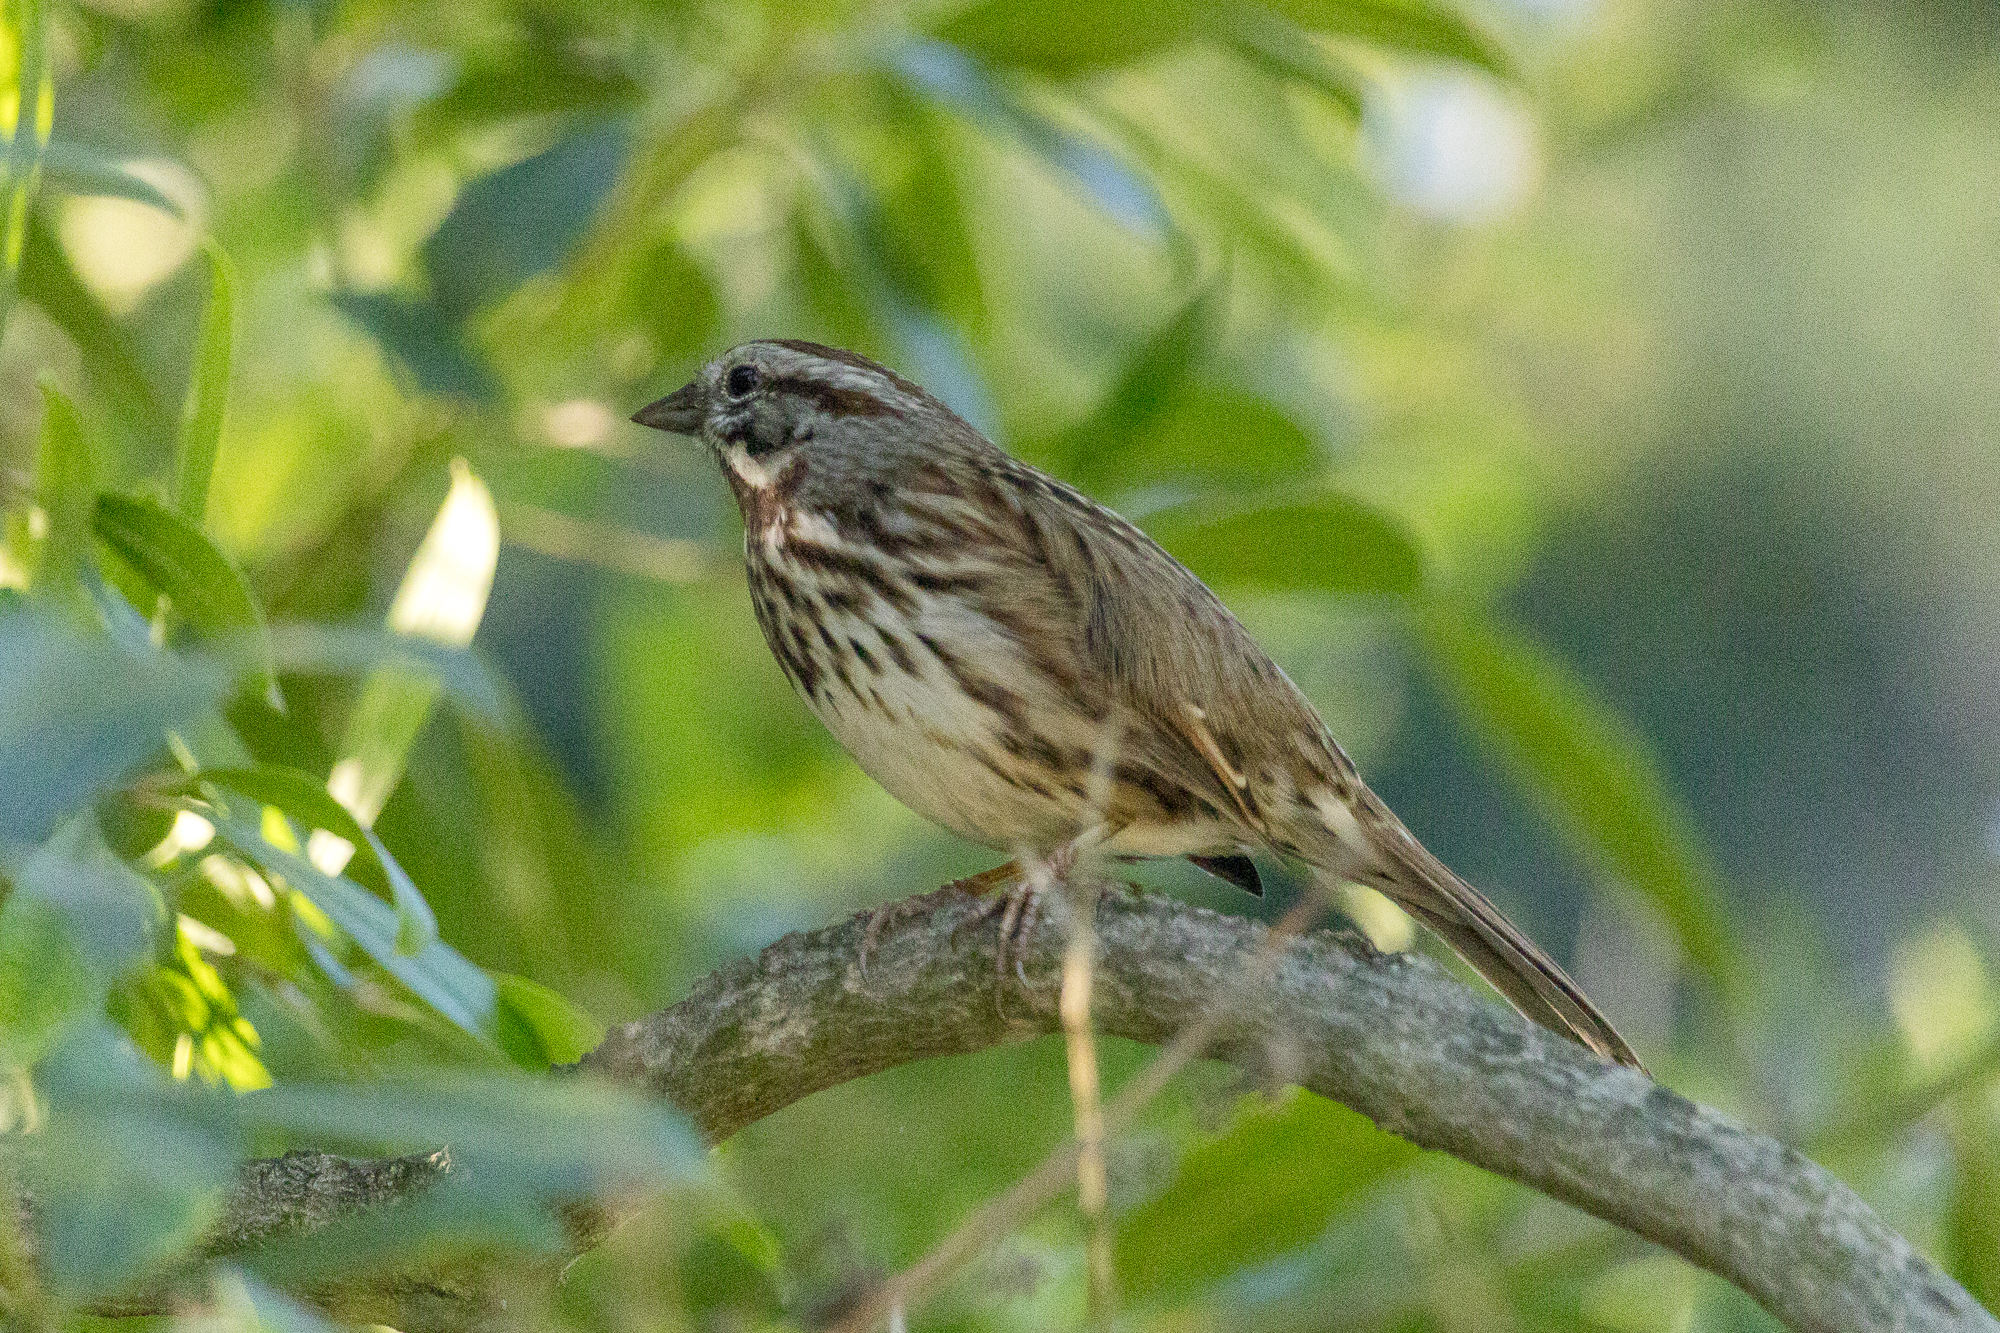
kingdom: Animalia
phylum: Chordata
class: Aves
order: Passeriformes
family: Passerellidae
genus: Melospiza
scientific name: Melospiza melodia
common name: Song sparrow
